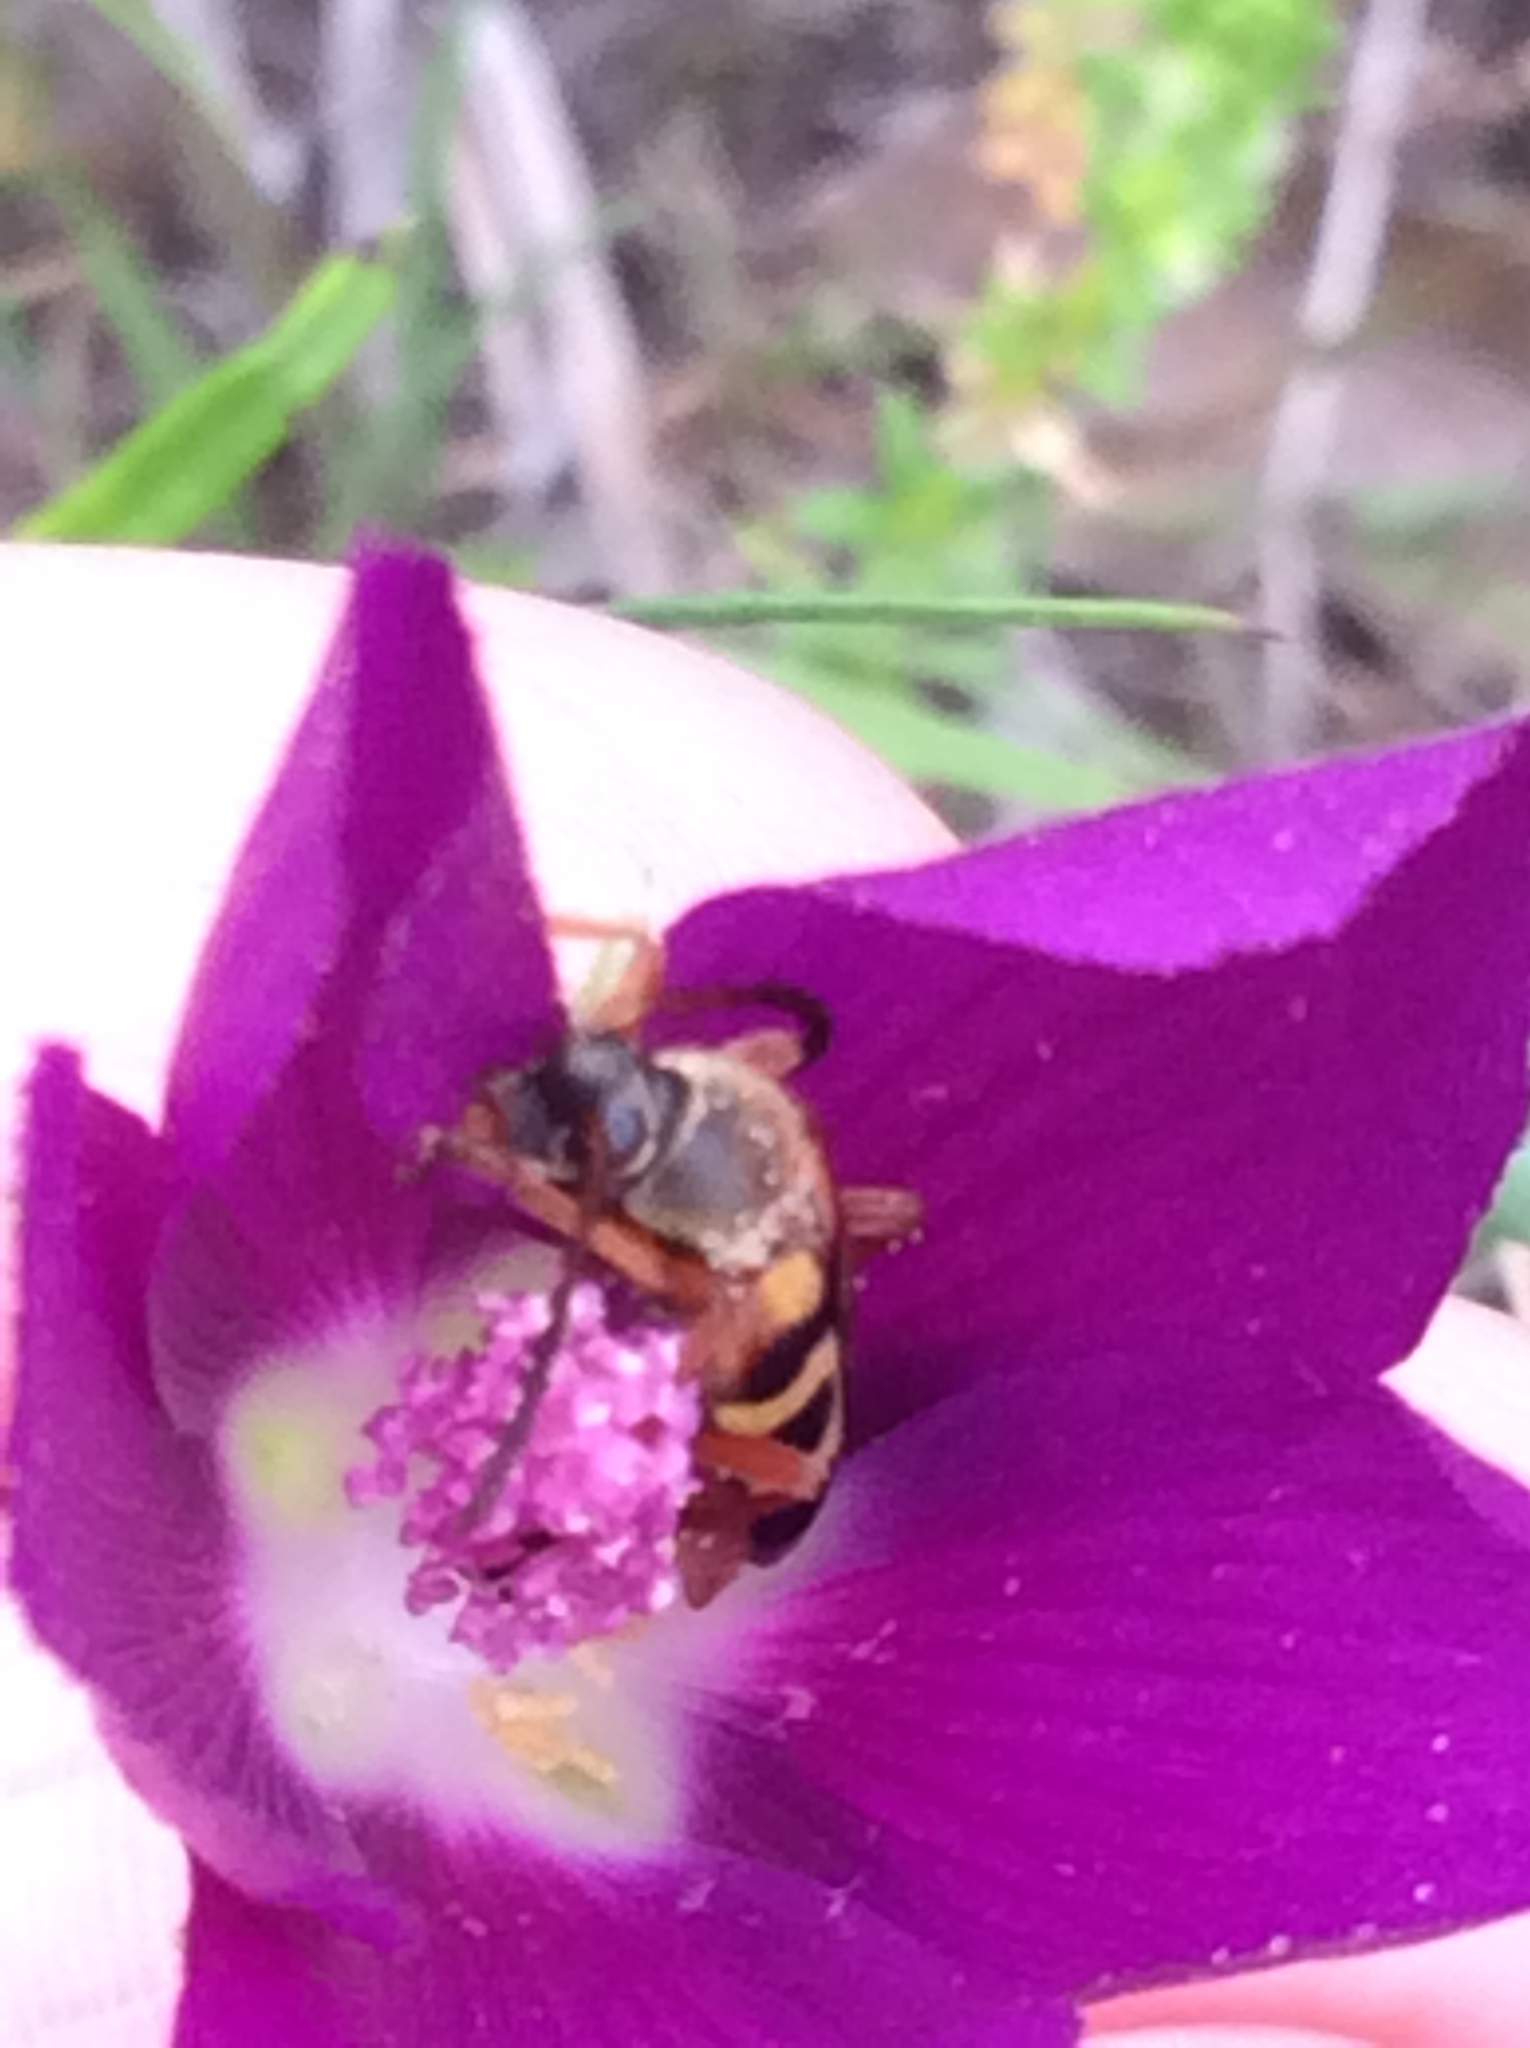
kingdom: Animalia
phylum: Arthropoda
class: Insecta
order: Hymenoptera
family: Apidae
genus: Apis
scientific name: Apis mellifera
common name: Honey bee
